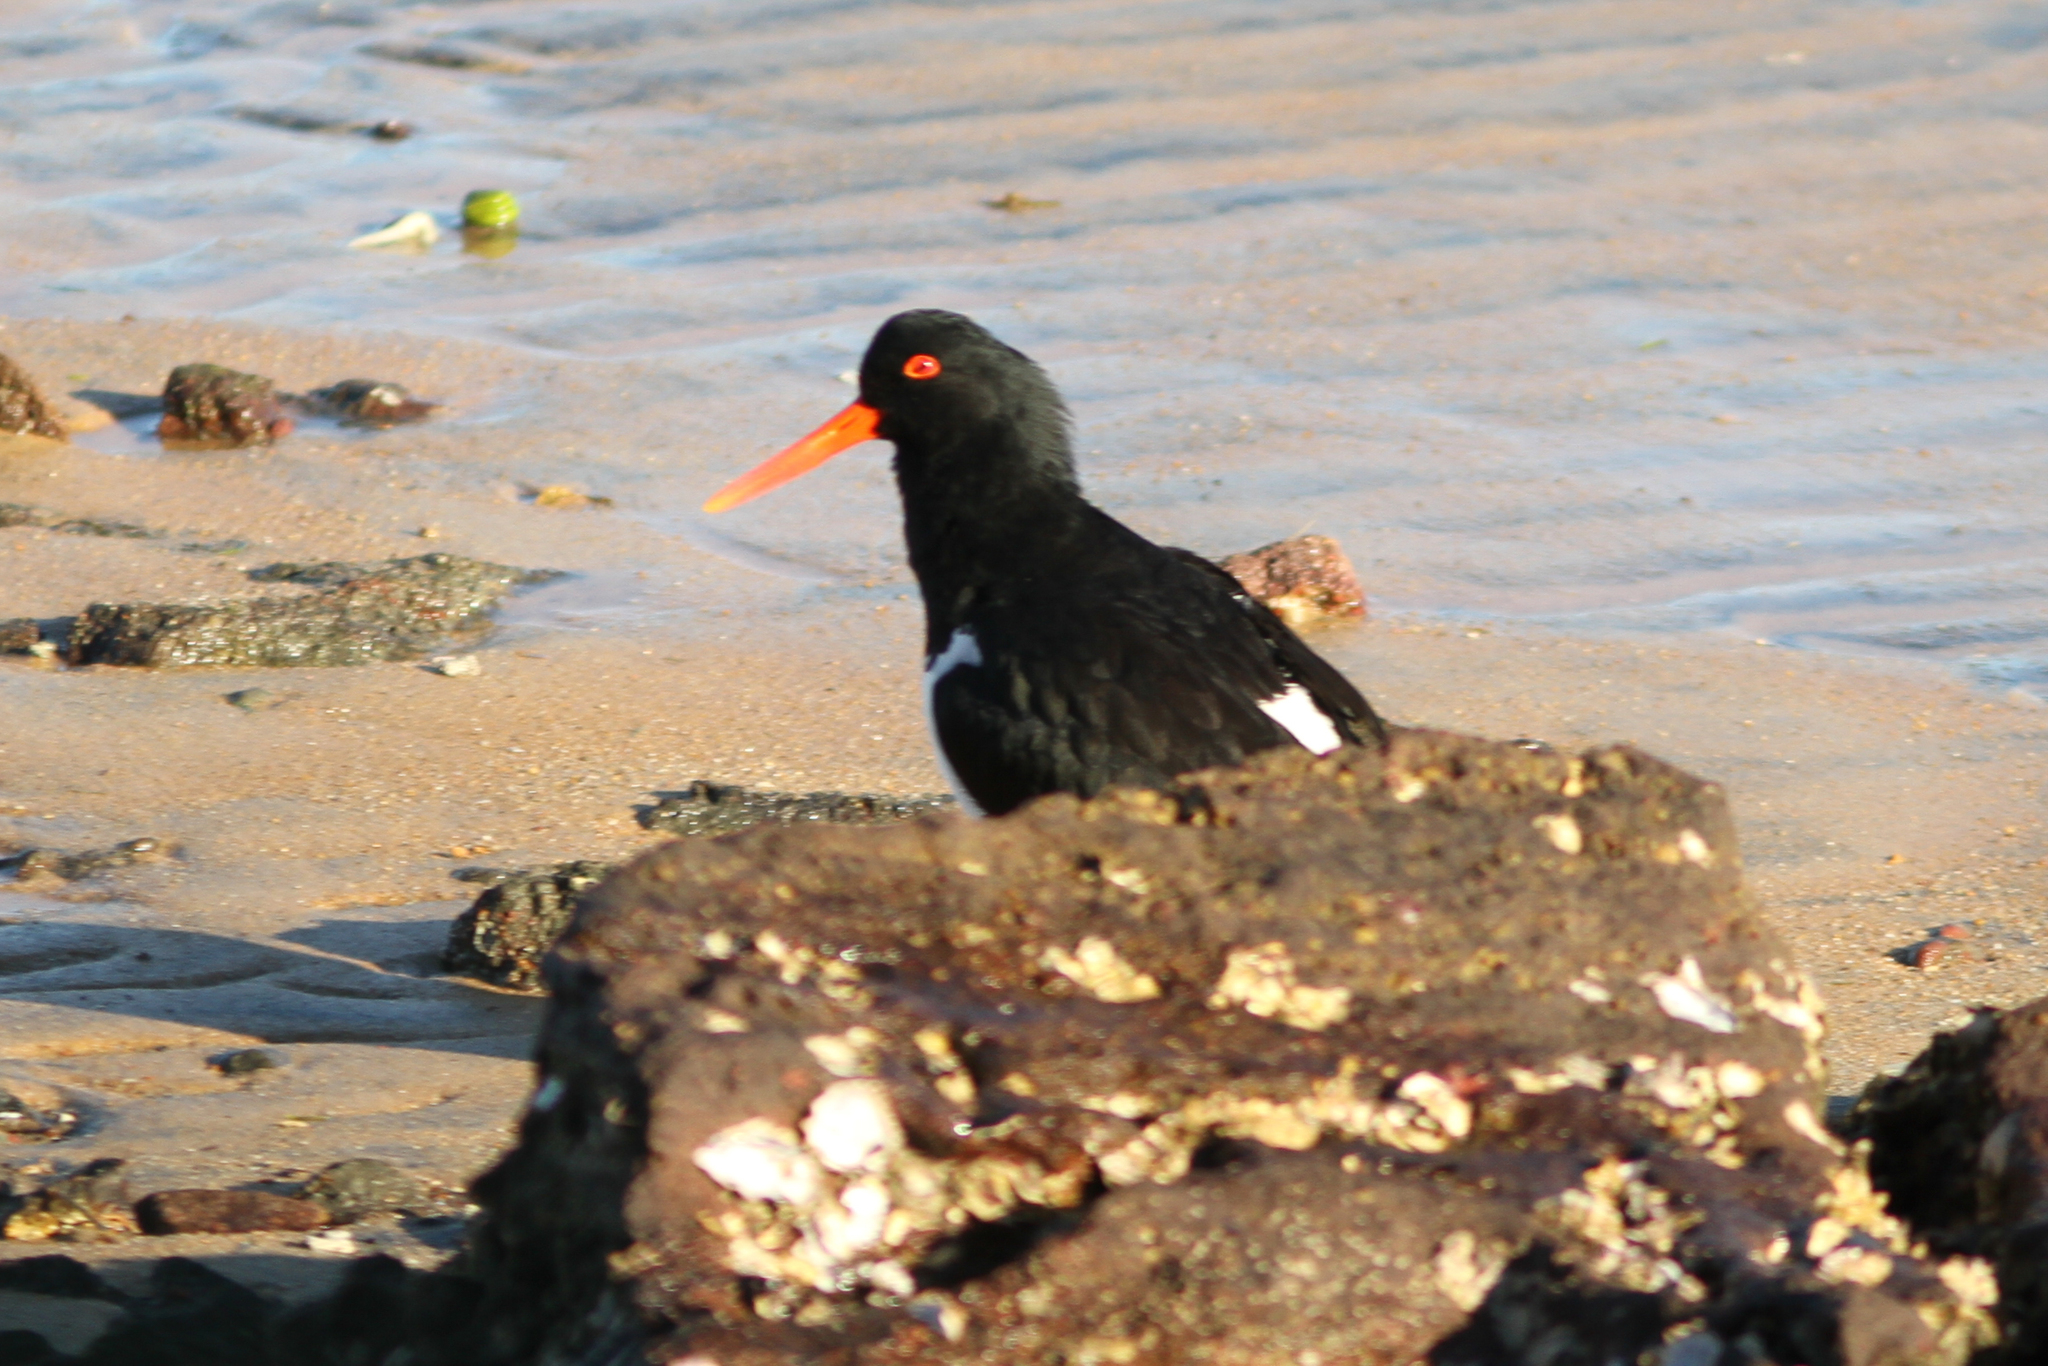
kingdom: Animalia
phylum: Chordata
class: Aves
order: Charadriiformes
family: Haematopodidae
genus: Haematopus
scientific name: Haematopus longirostris
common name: Pied oystercatcher
